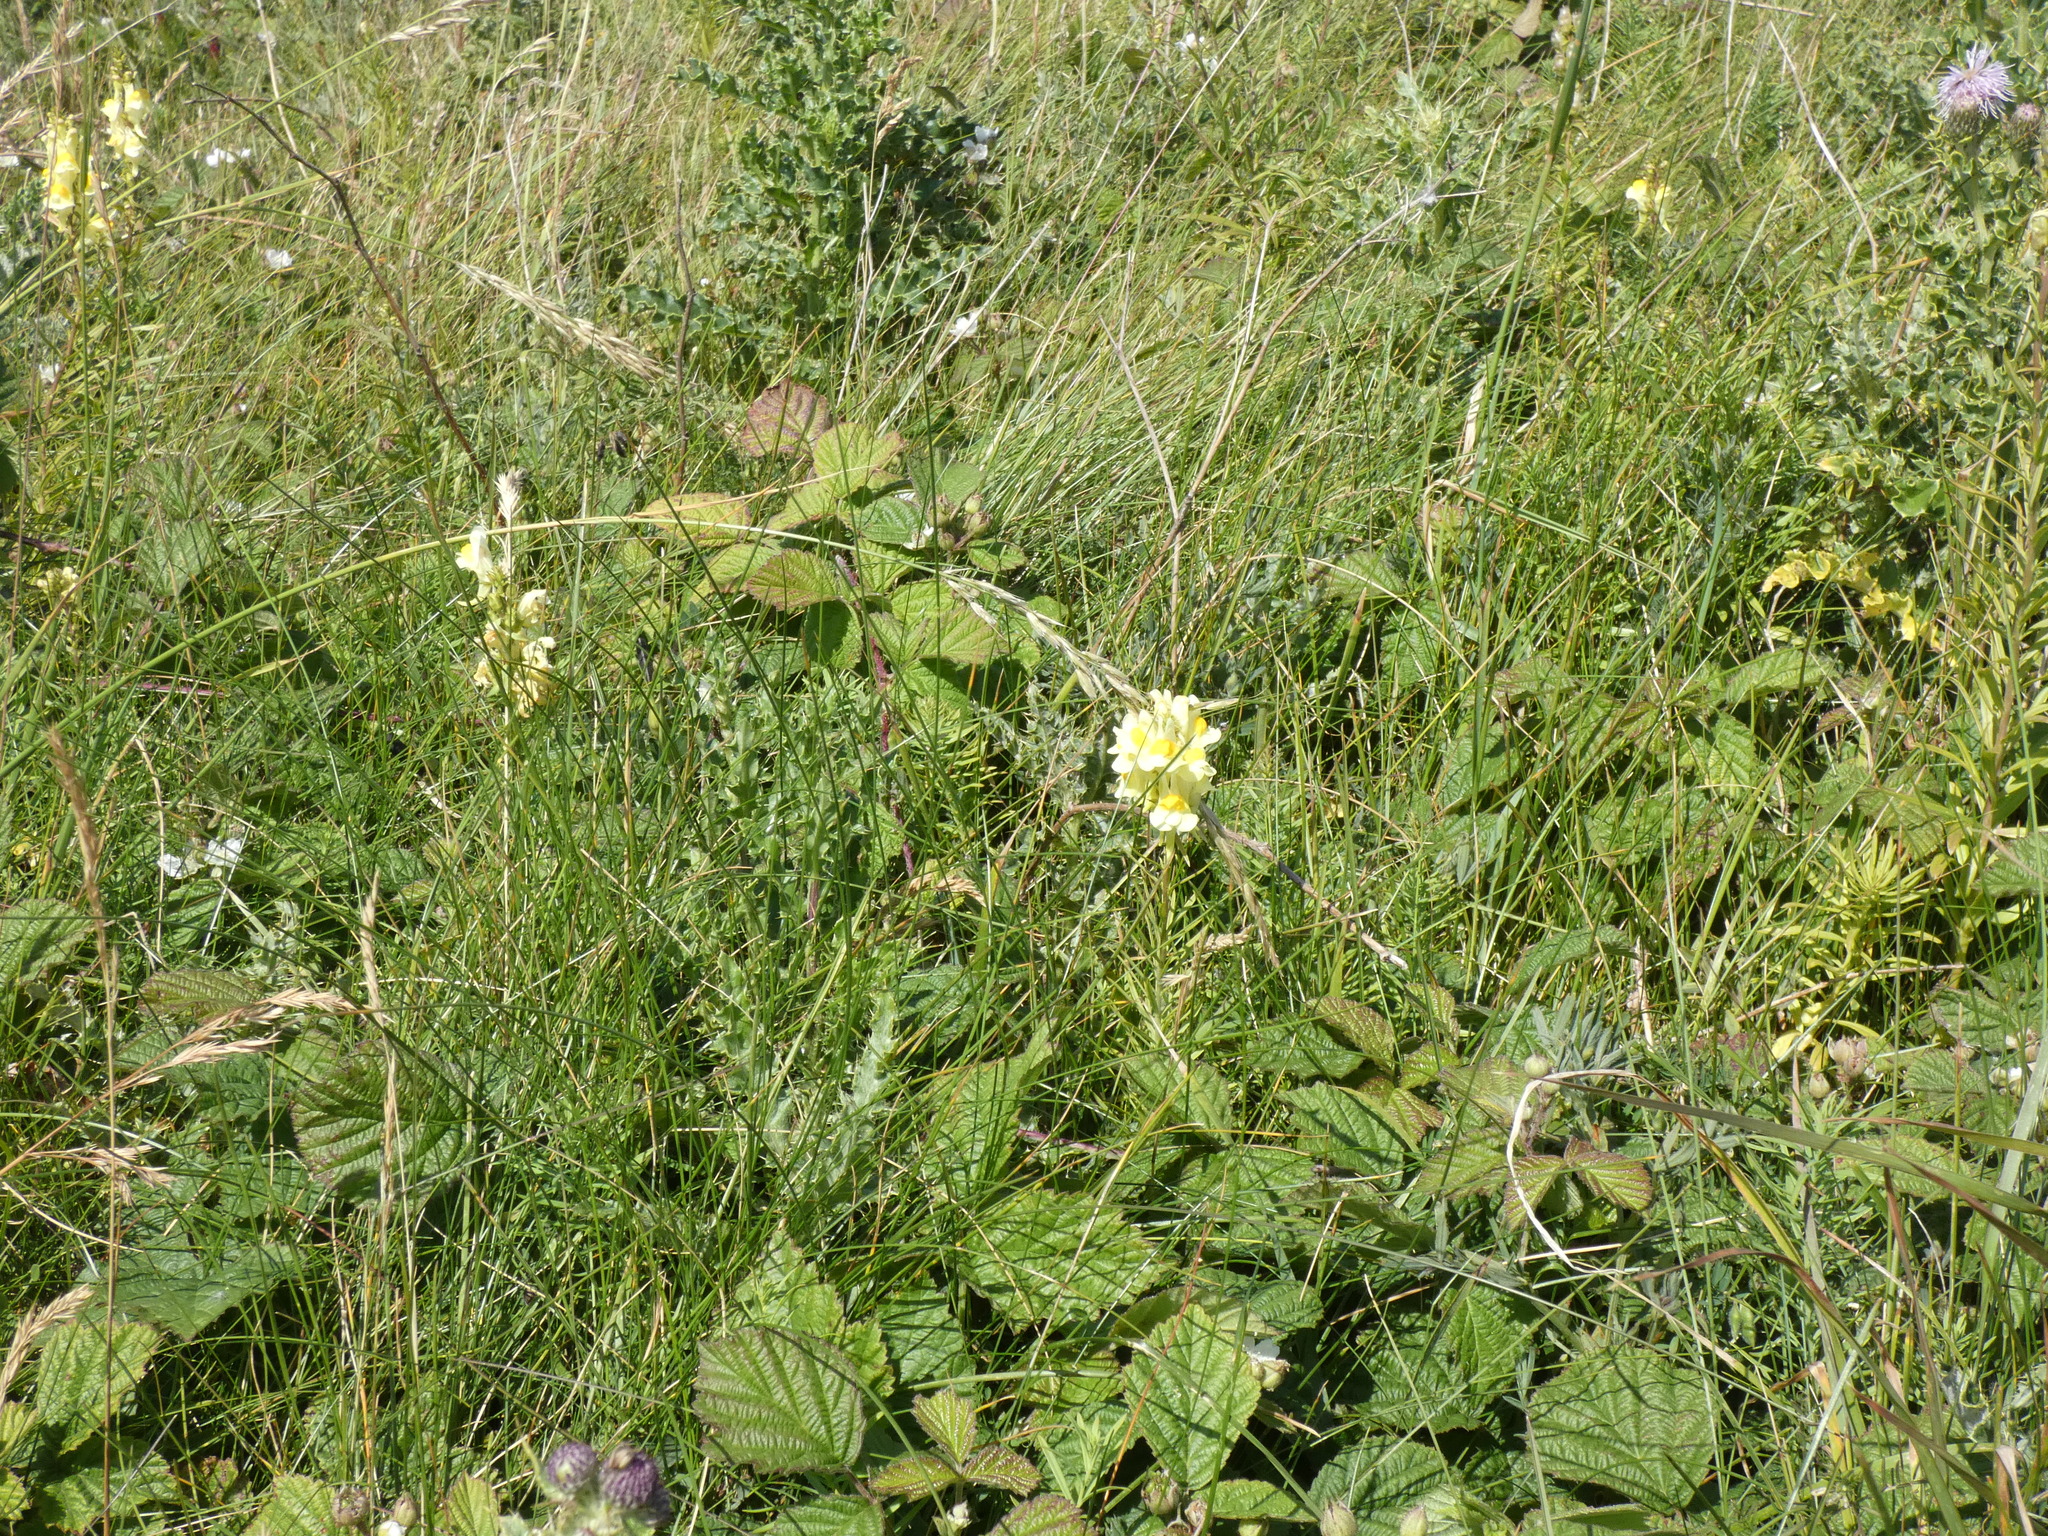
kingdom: Plantae
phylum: Tracheophyta
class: Magnoliopsida
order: Lamiales
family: Plantaginaceae
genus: Linaria
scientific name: Linaria vulgaris
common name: Butter and eggs
